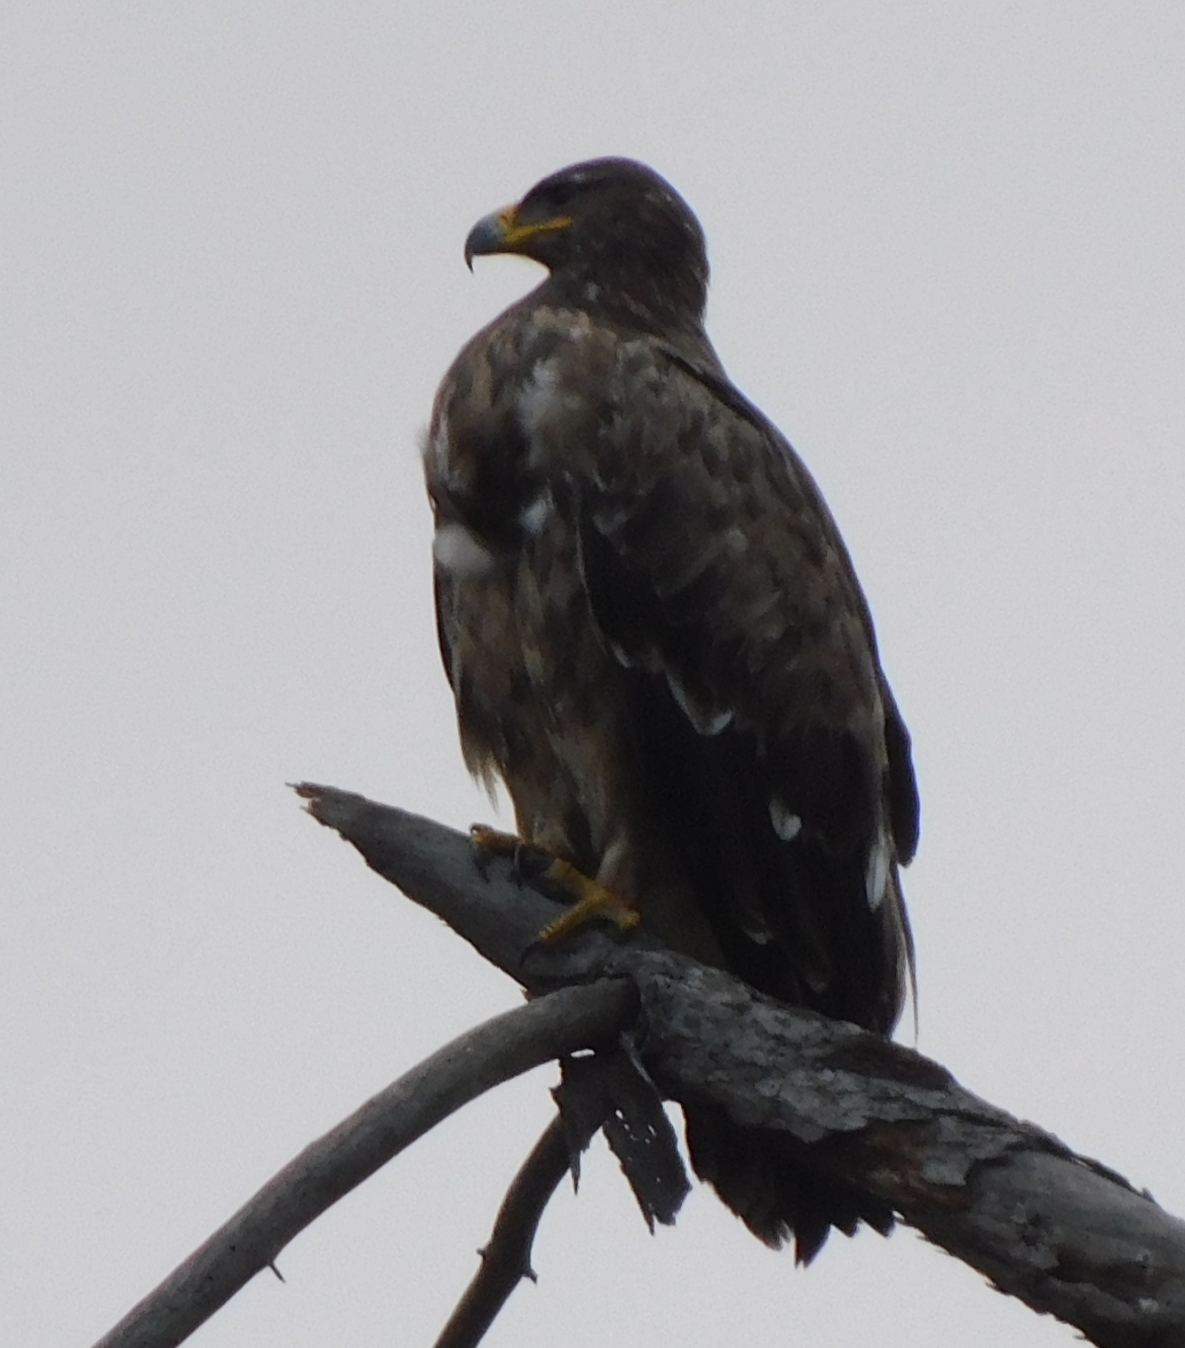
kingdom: Animalia
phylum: Chordata
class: Aves
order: Accipitriformes
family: Accipitridae
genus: Aquila
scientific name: Aquila nipalensis
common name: Steppe eagle
